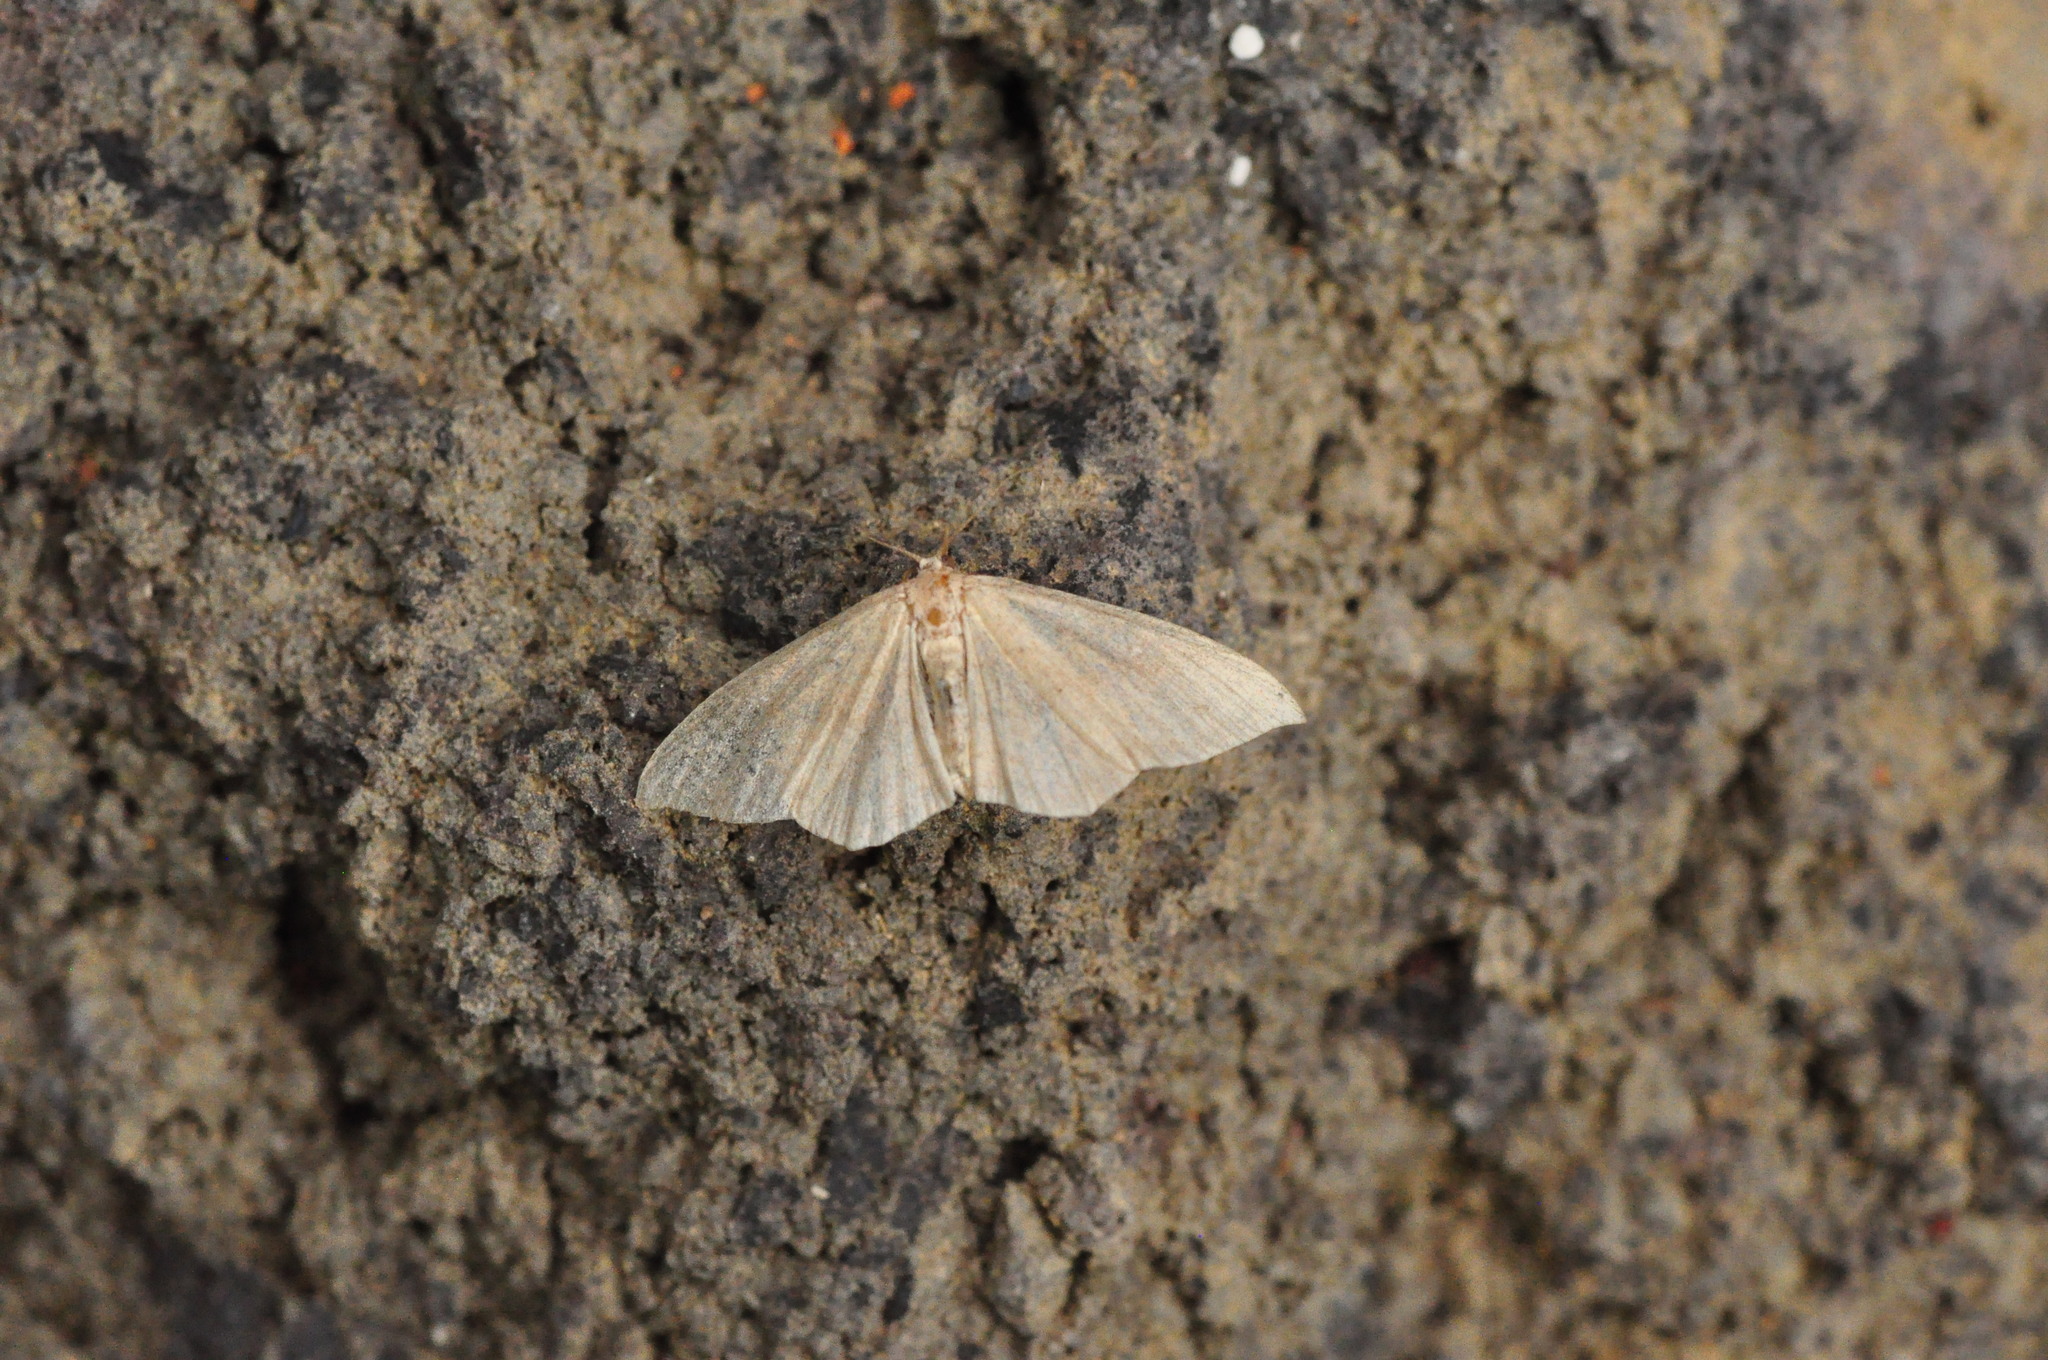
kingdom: Animalia
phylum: Arthropoda
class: Insecta
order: Lepidoptera
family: Geometridae
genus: Cyclophora
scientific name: Cyclophora maderensis
